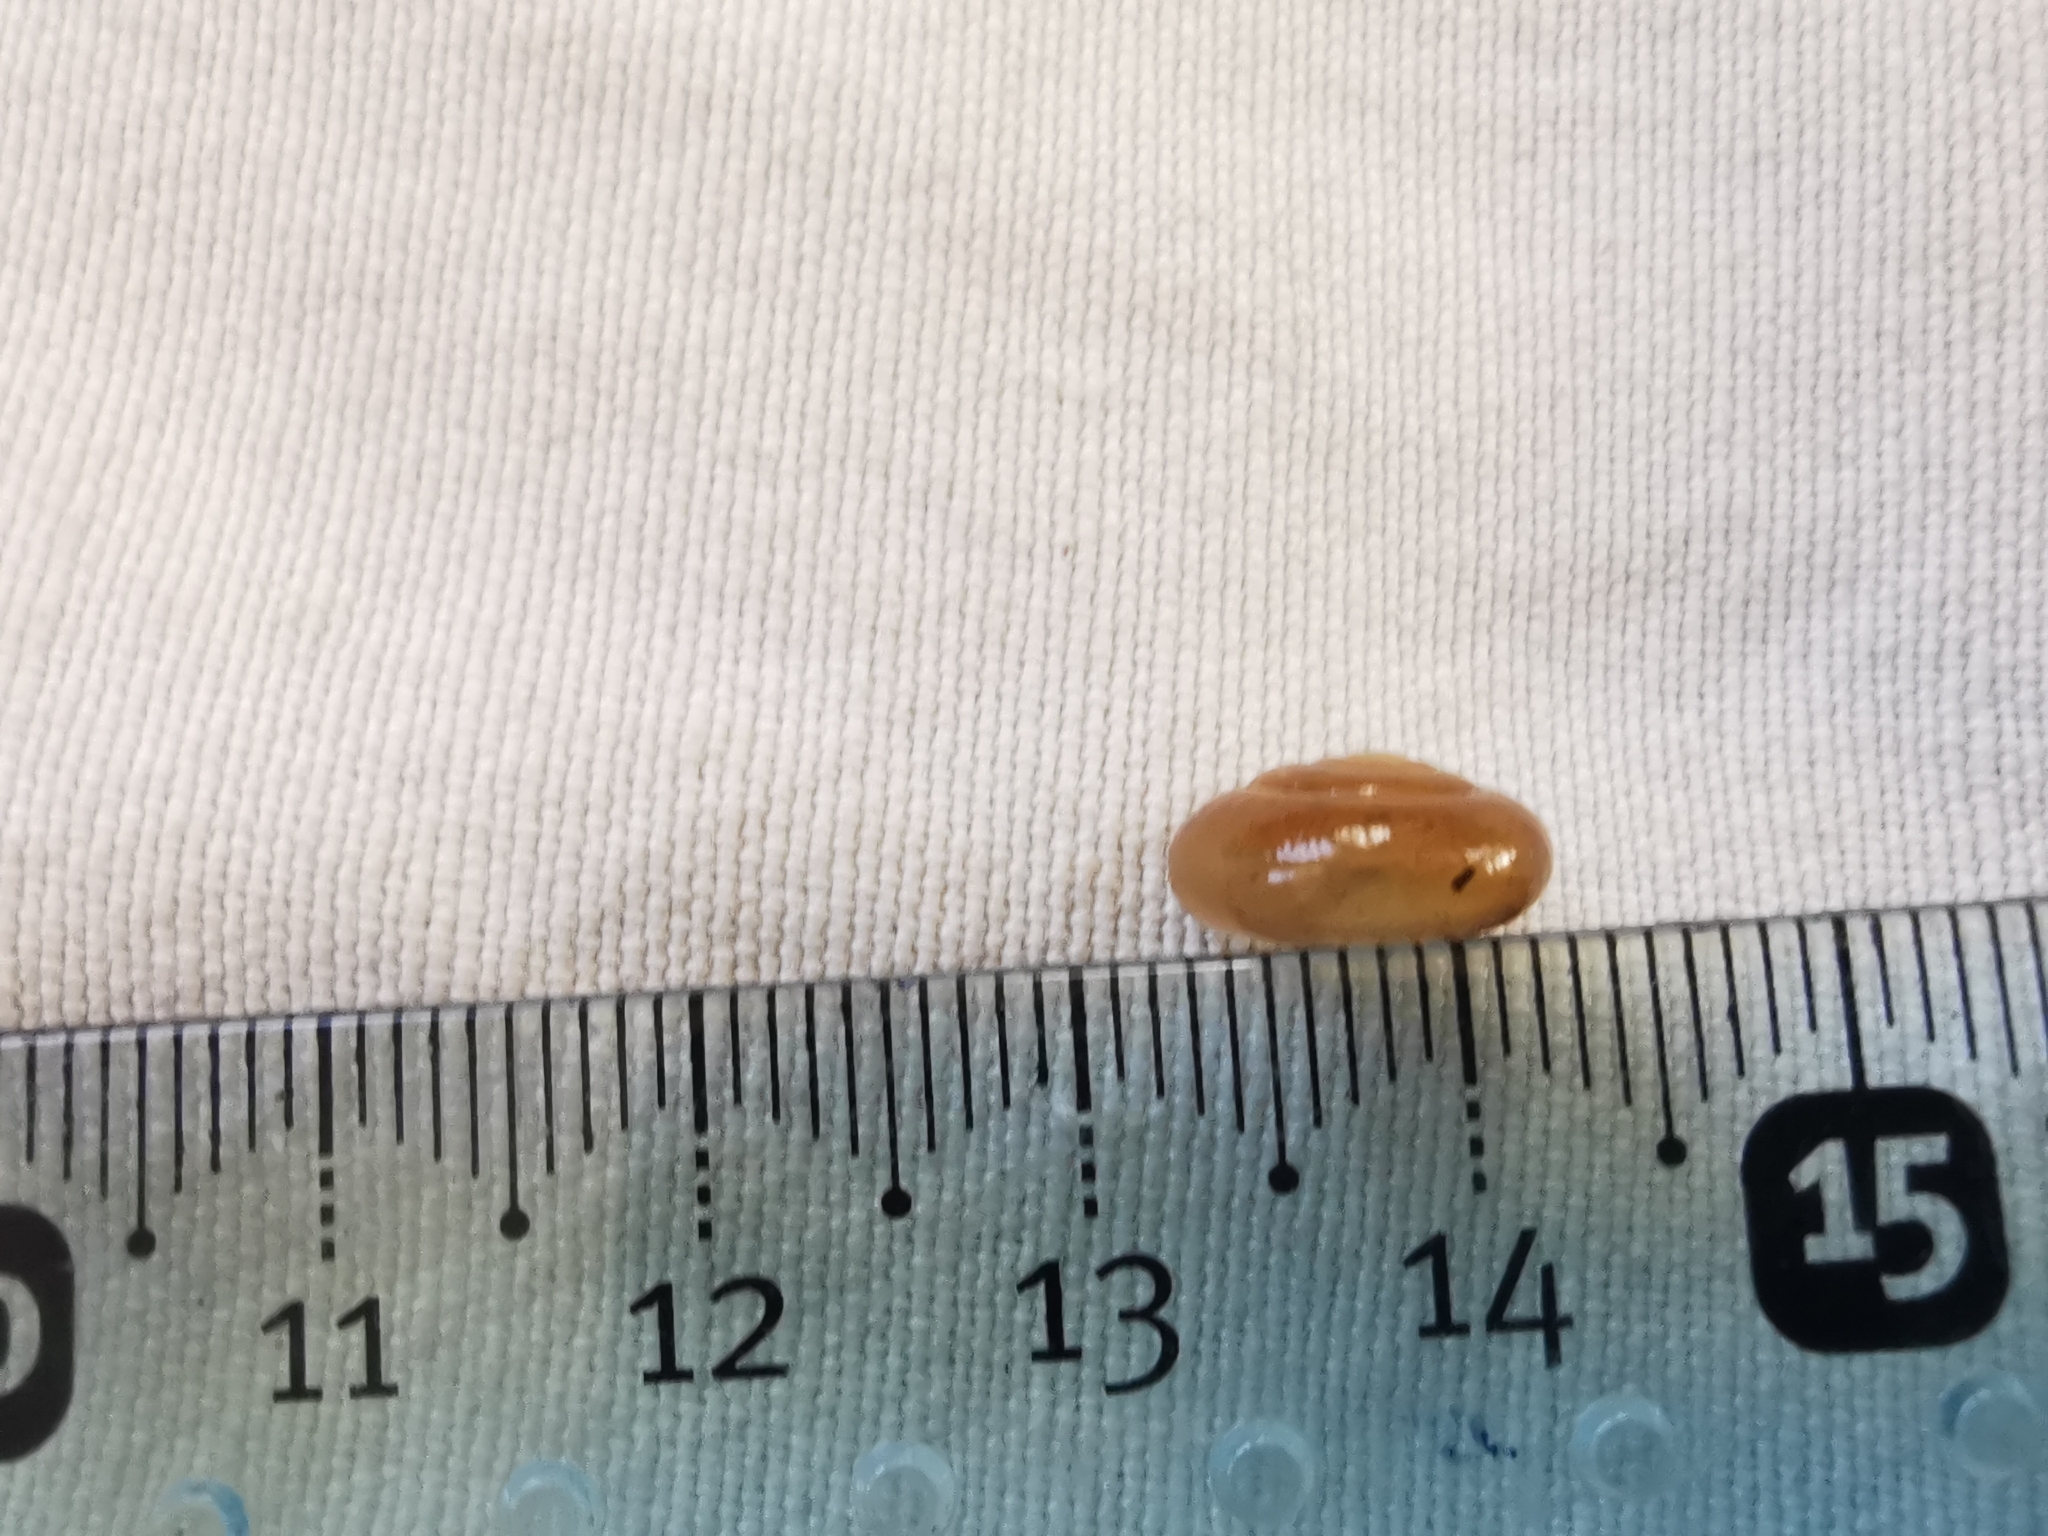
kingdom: Animalia
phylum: Mollusca
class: Gastropoda
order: Stylommatophora
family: Oxychilidae
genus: Morlina
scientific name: Morlina glabra
